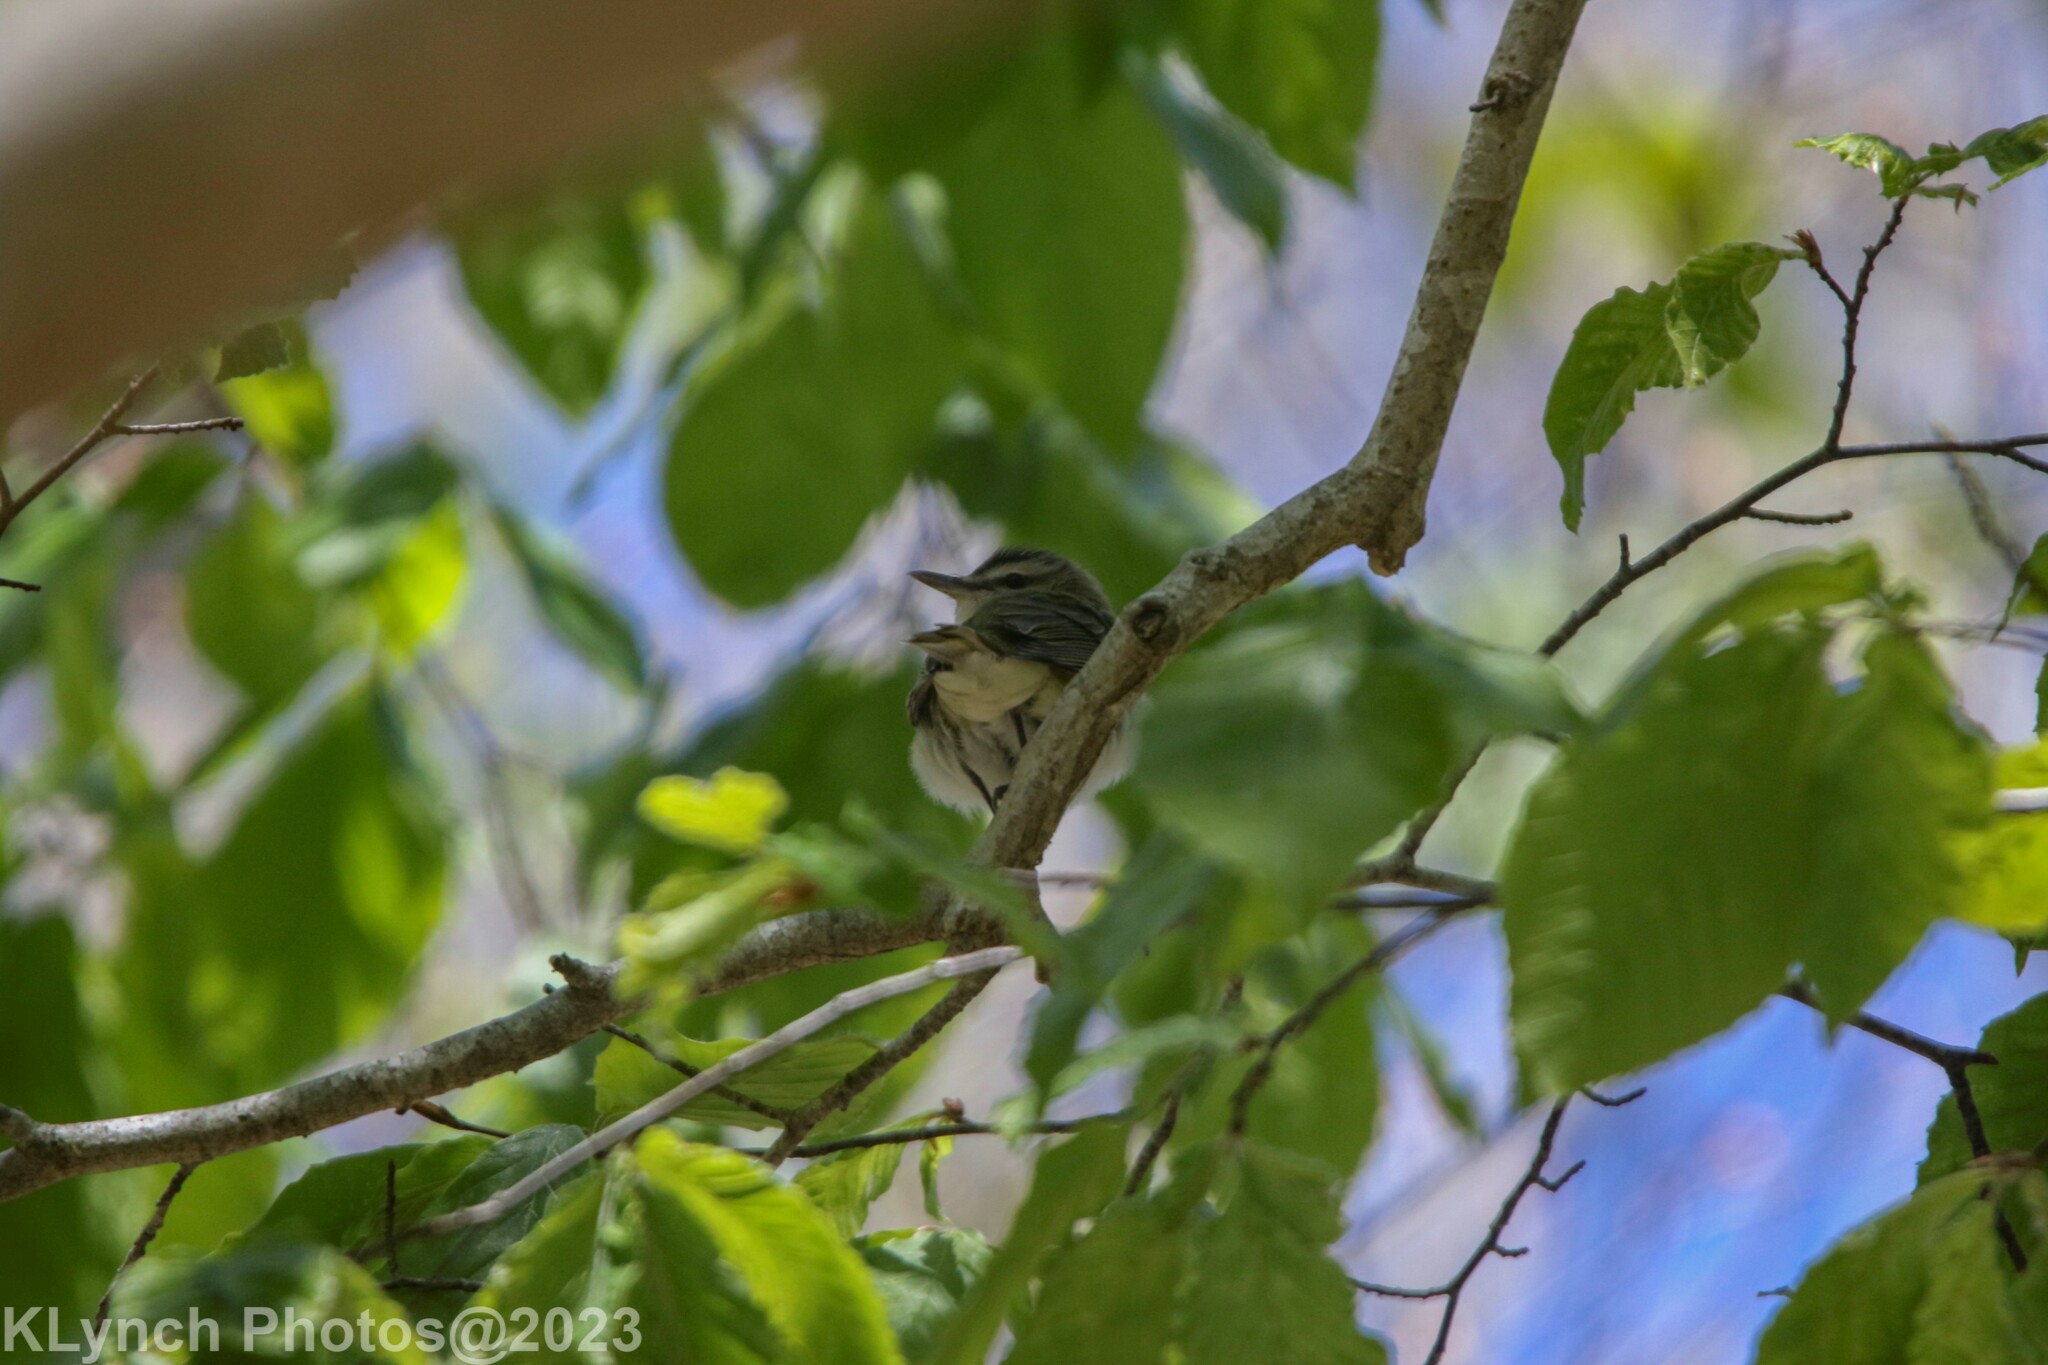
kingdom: Animalia
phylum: Chordata
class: Aves
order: Passeriformes
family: Vireonidae
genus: Vireo
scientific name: Vireo olivaceus
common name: Red-eyed vireo
